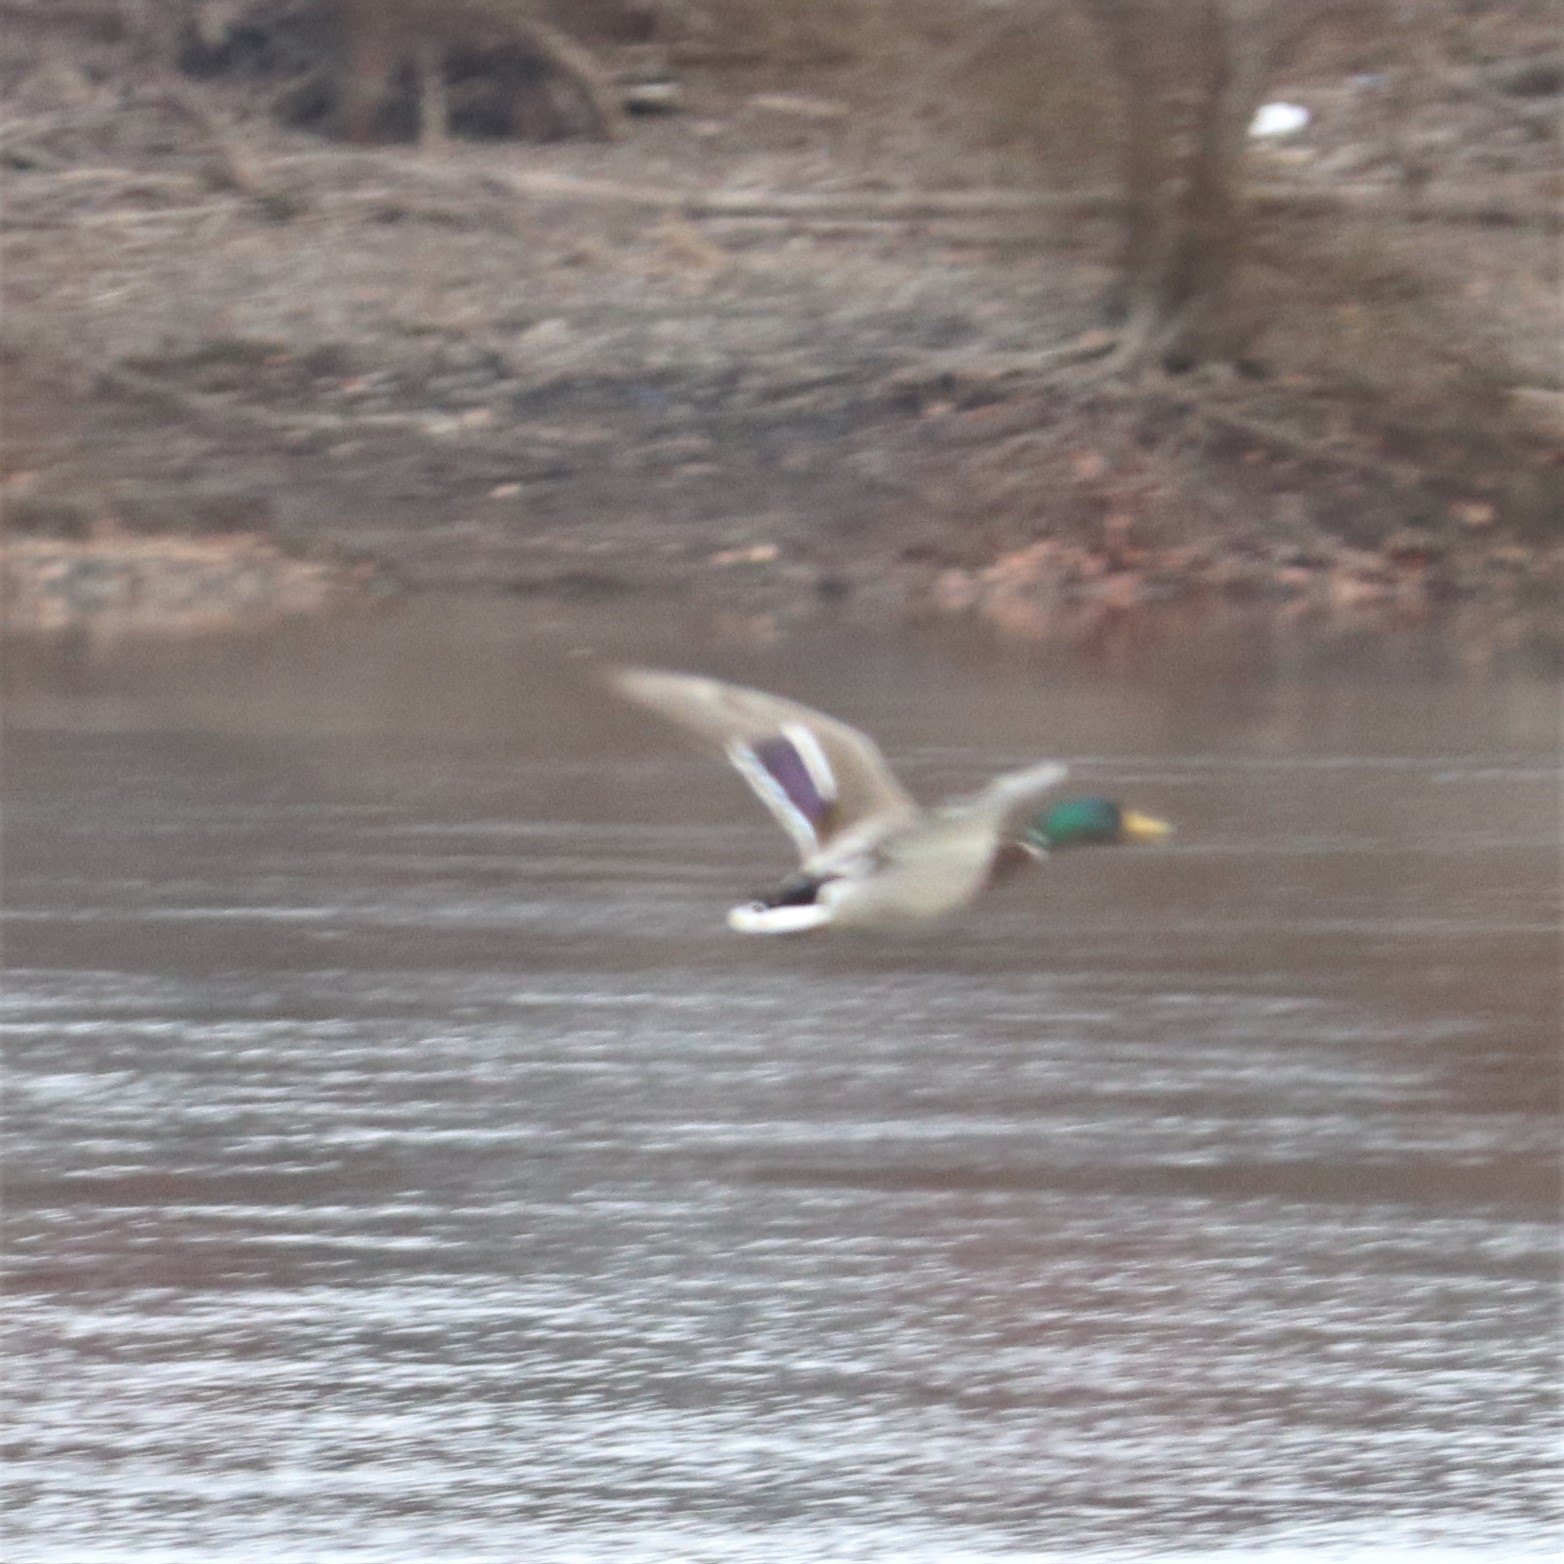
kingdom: Animalia
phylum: Chordata
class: Aves
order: Anseriformes
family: Anatidae
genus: Anas
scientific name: Anas platyrhynchos
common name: Mallard
